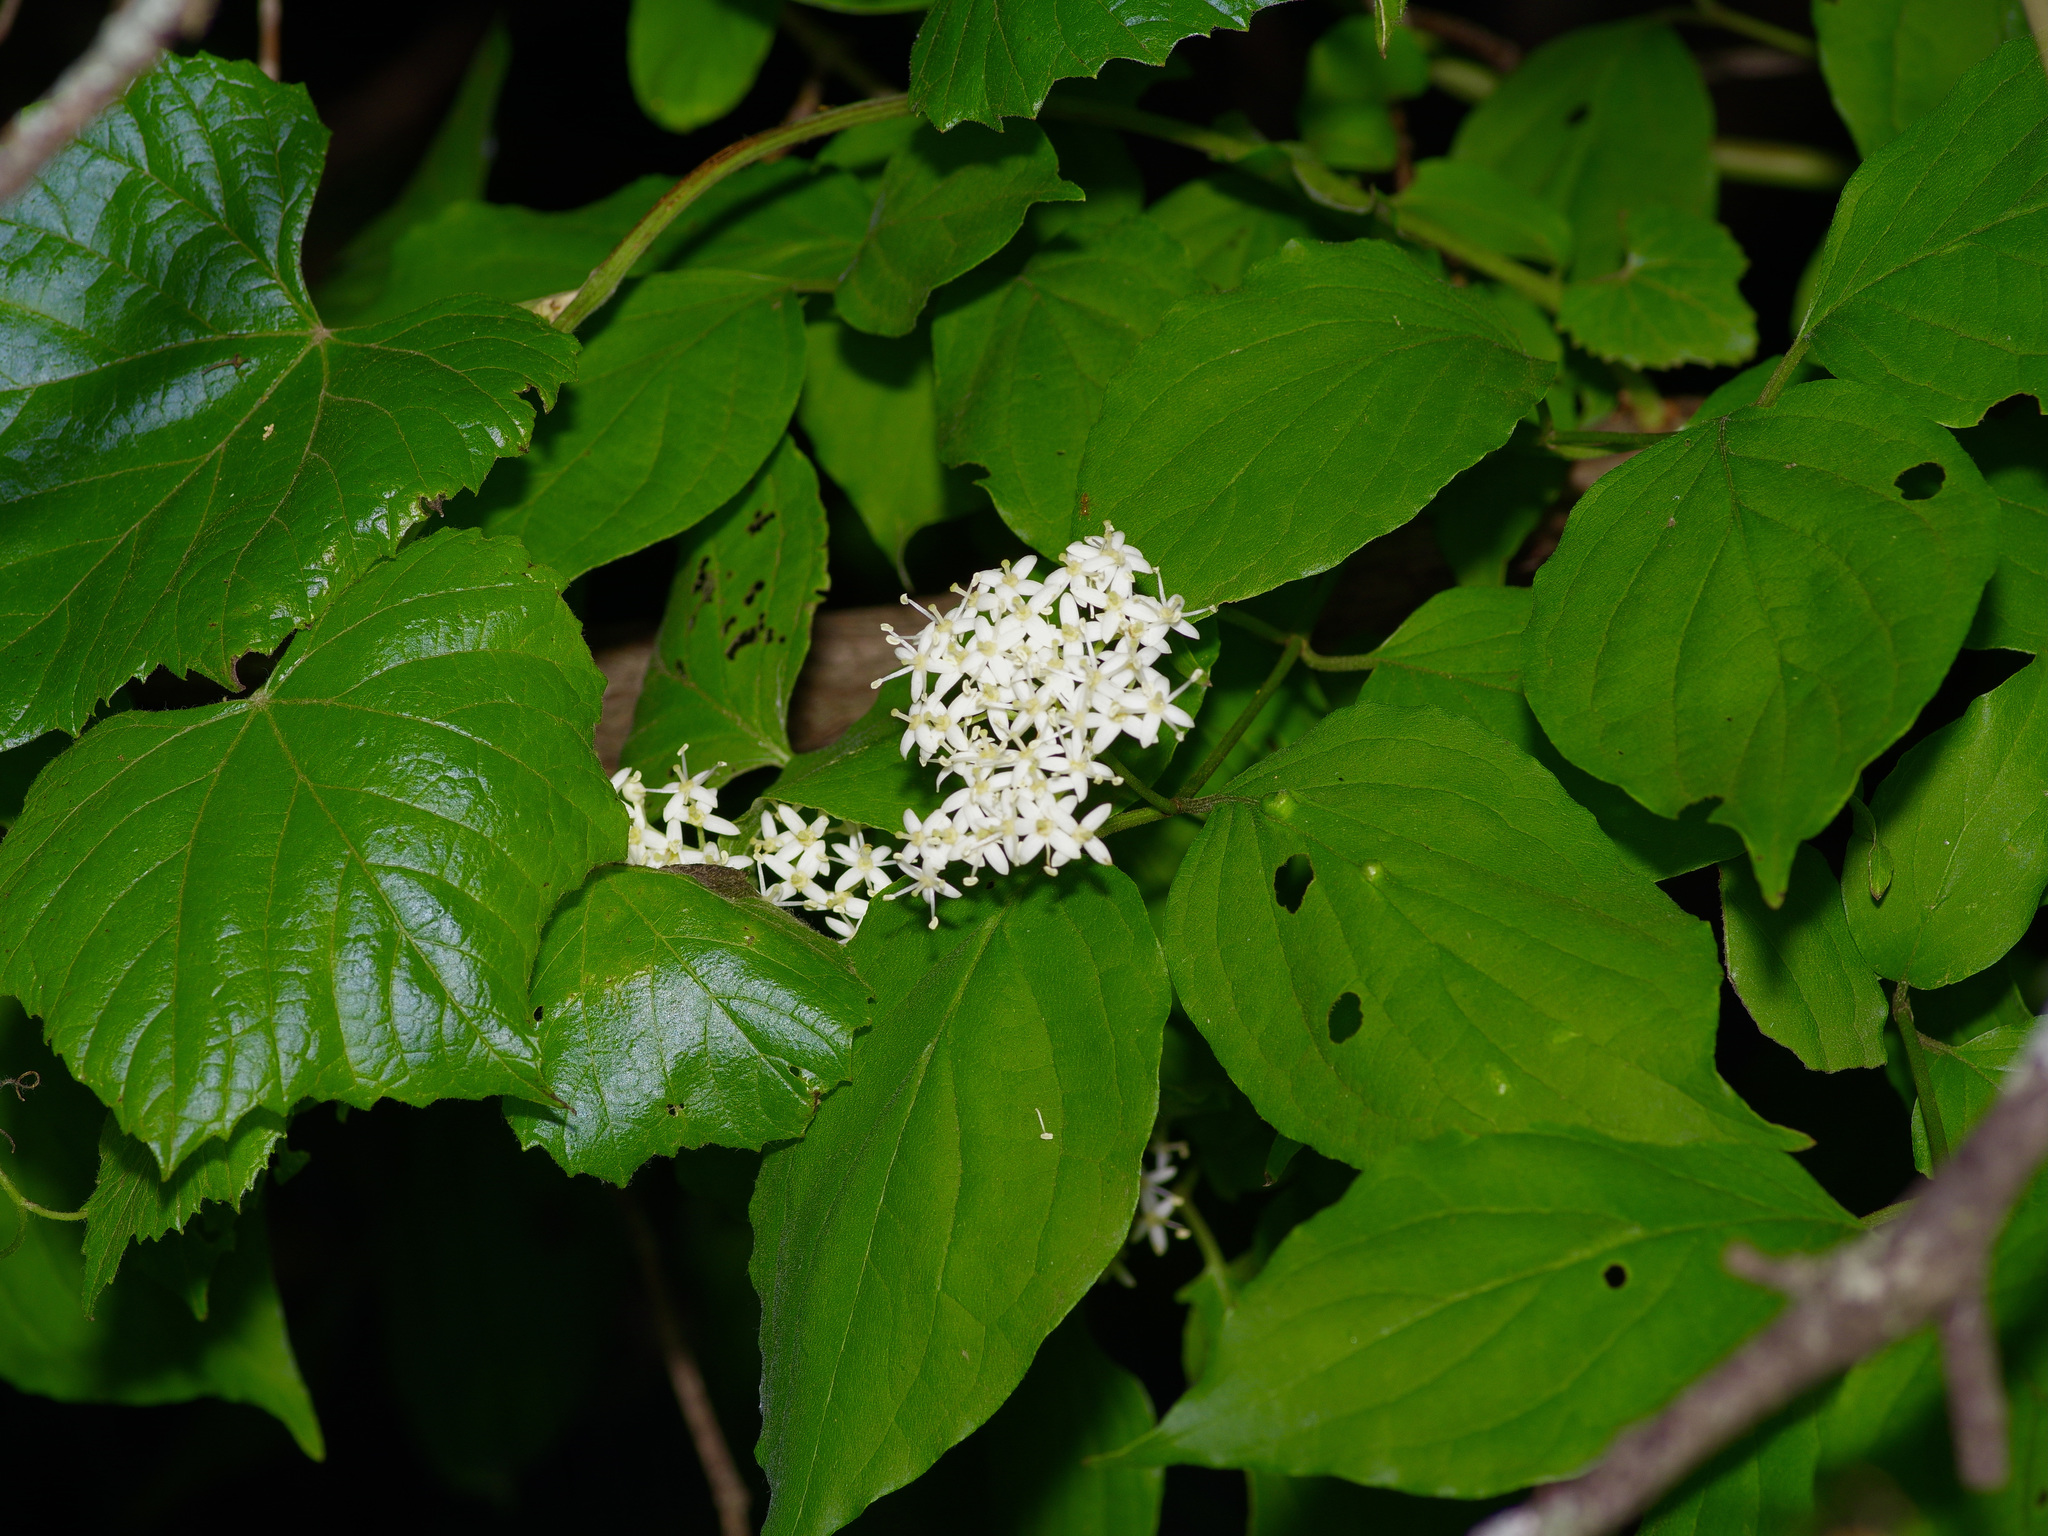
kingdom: Plantae
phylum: Tracheophyta
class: Magnoliopsida
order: Cornales
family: Cornaceae
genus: Cornus
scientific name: Cornus drummondii
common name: Rough-leaf dogwood
